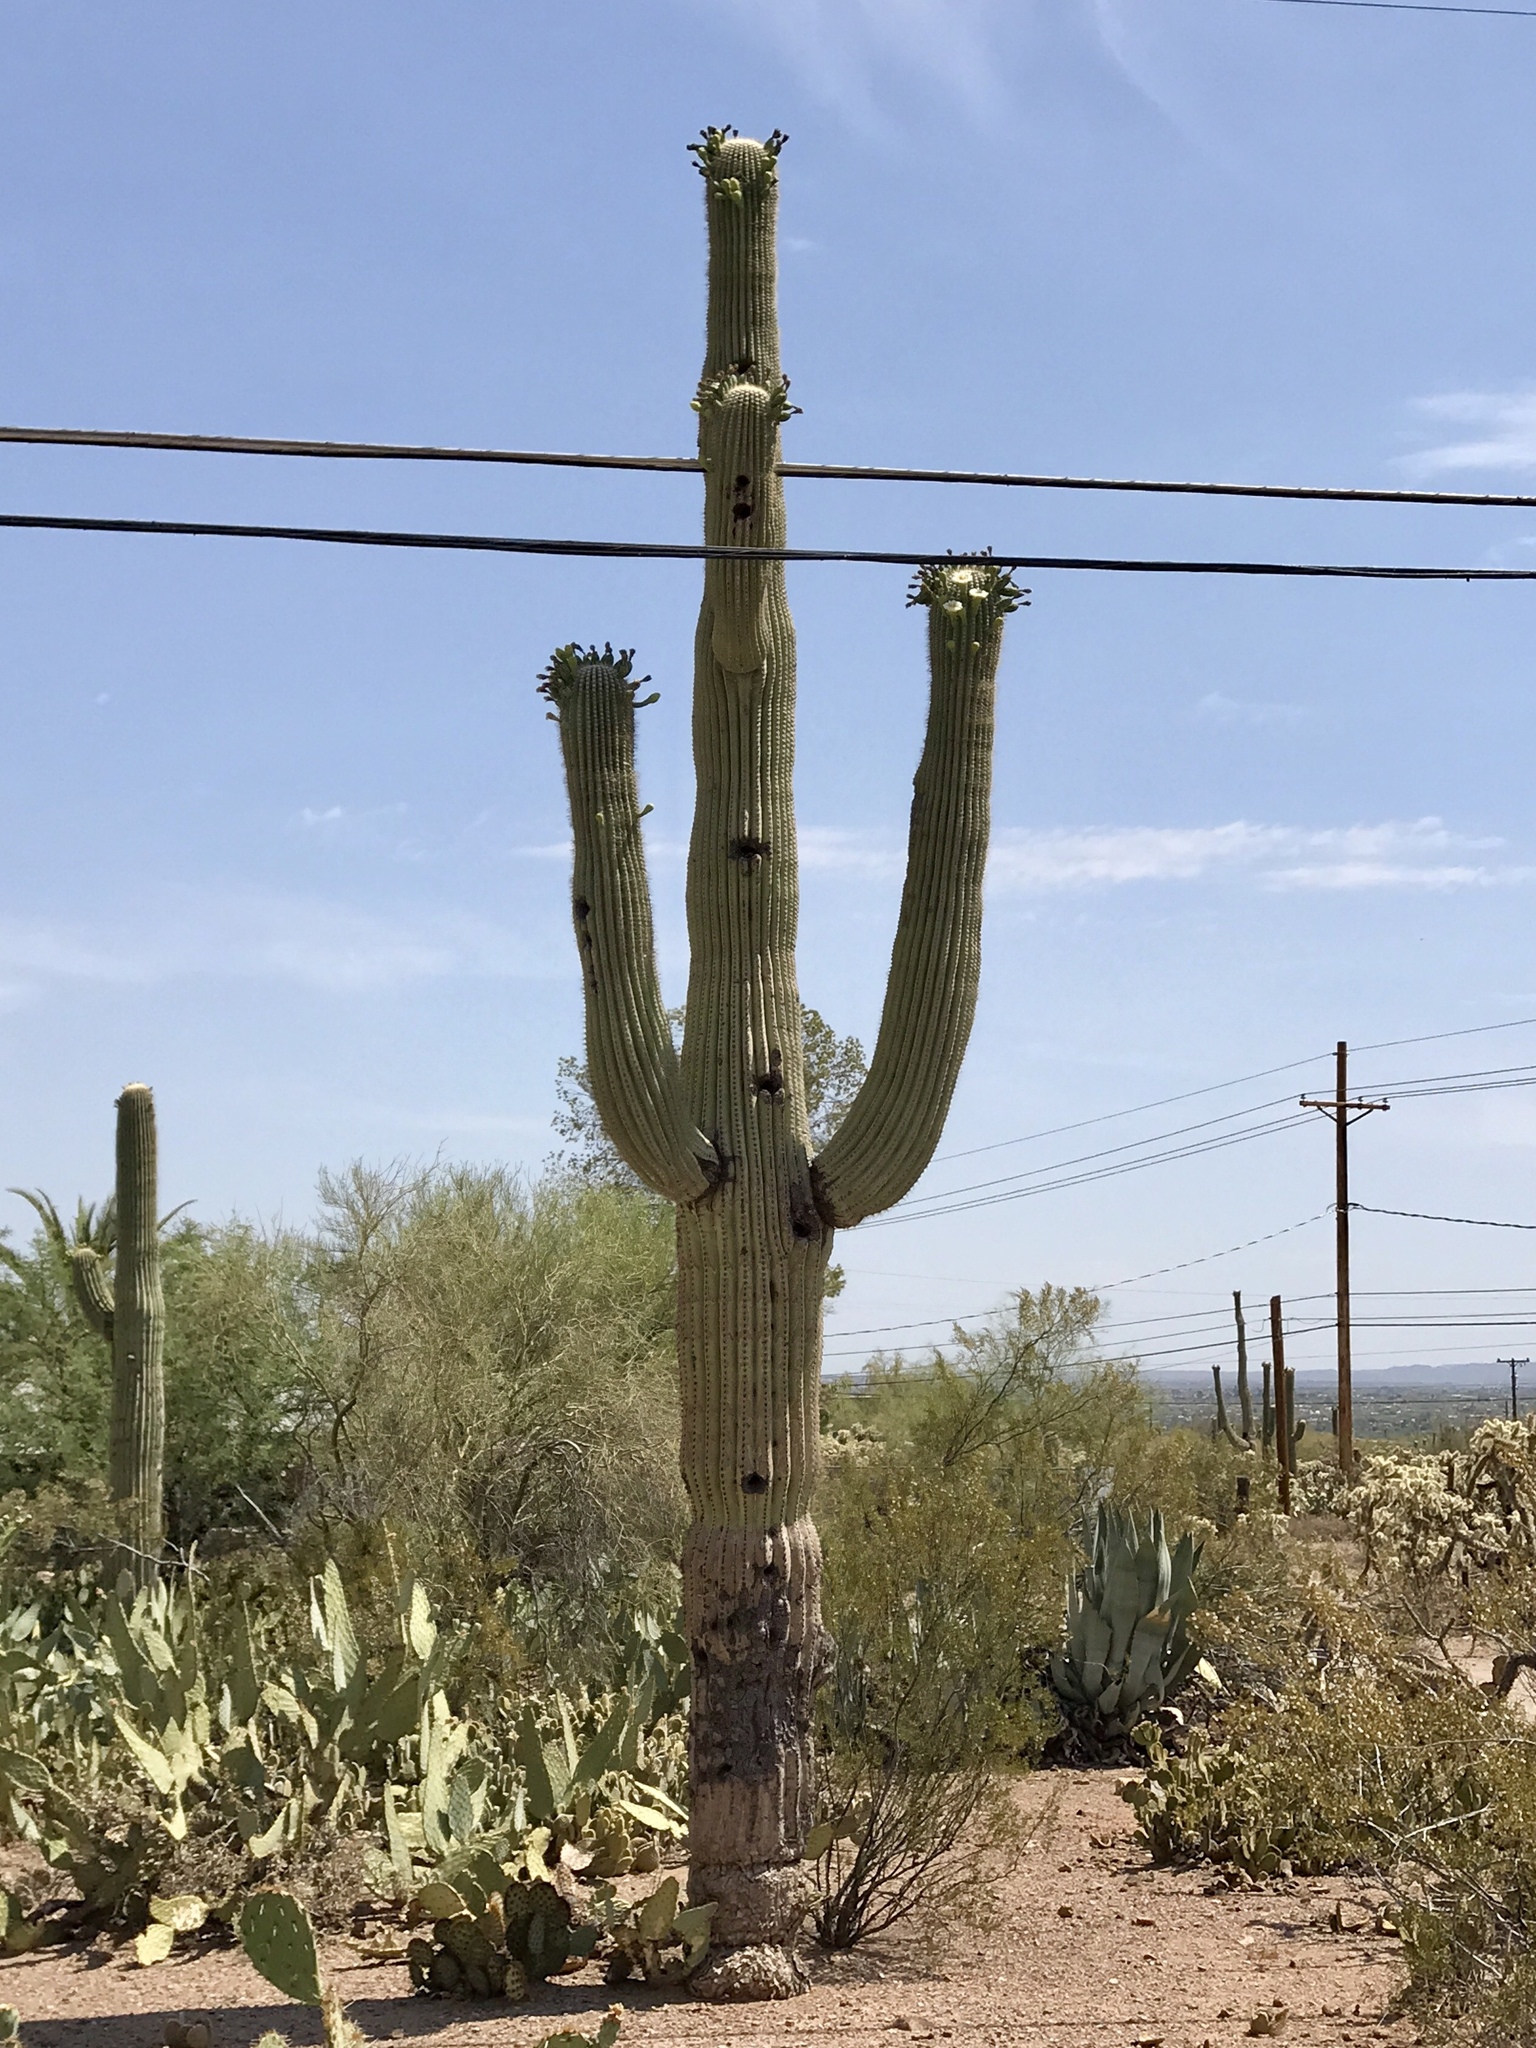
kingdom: Plantae
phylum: Tracheophyta
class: Magnoliopsida
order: Caryophyllales
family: Cactaceae
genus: Carnegiea
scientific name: Carnegiea gigantea
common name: Saguaro
